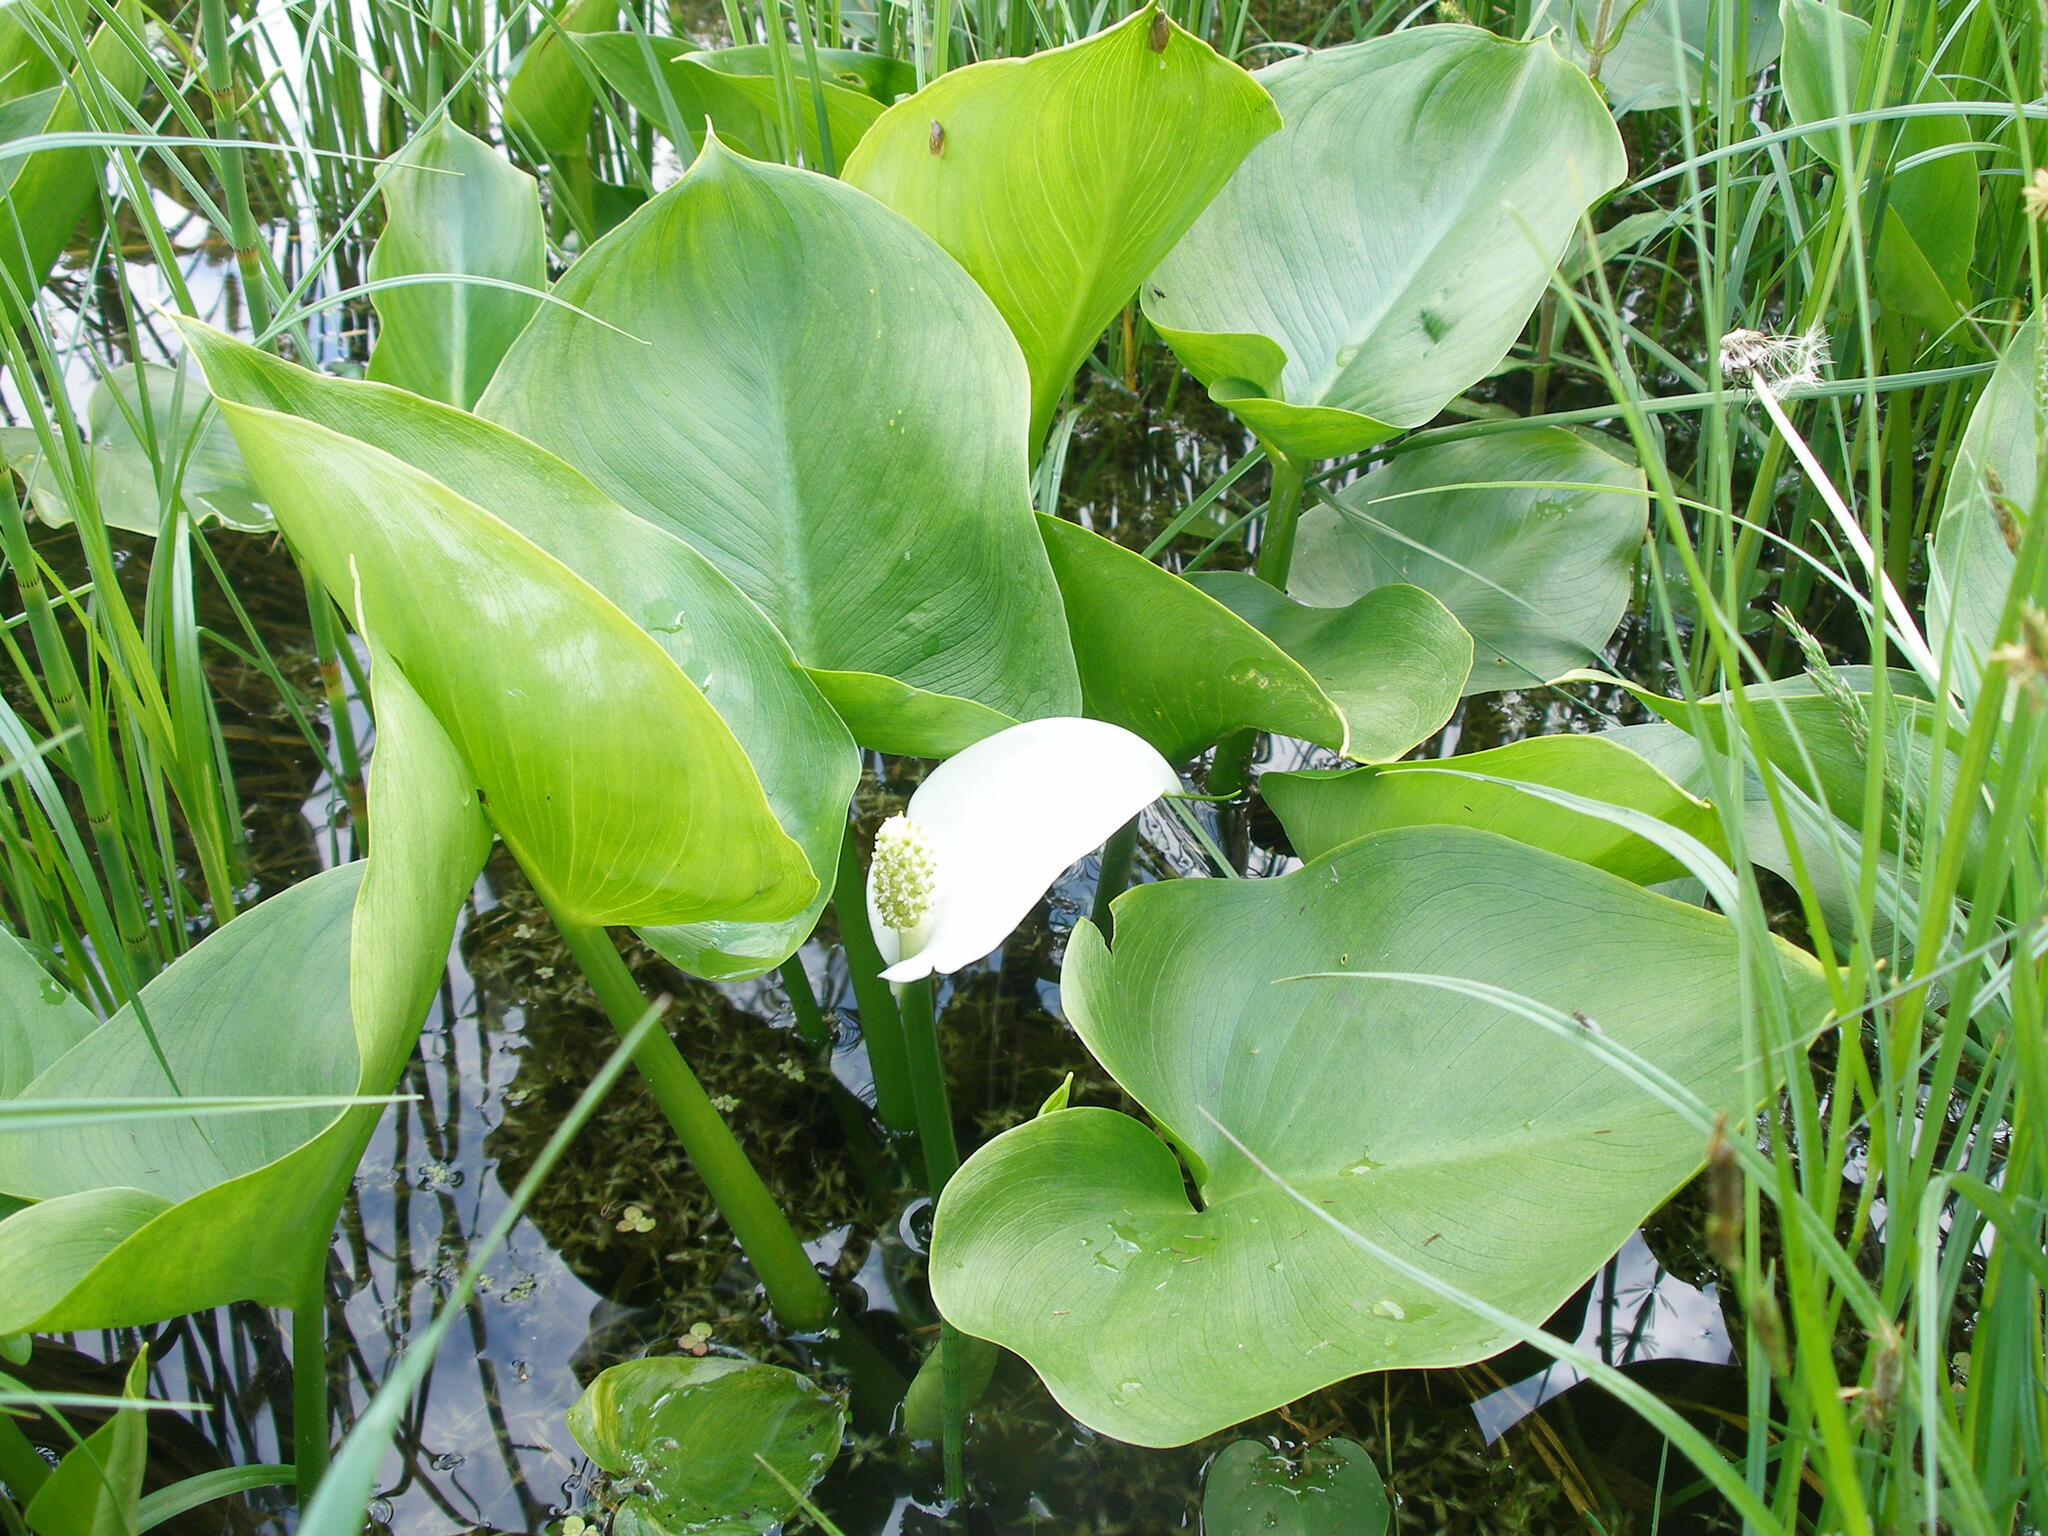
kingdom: Plantae
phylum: Tracheophyta
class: Liliopsida
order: Alismatales
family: Araceae
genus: Calla
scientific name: Calla palustris
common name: Bog arum
